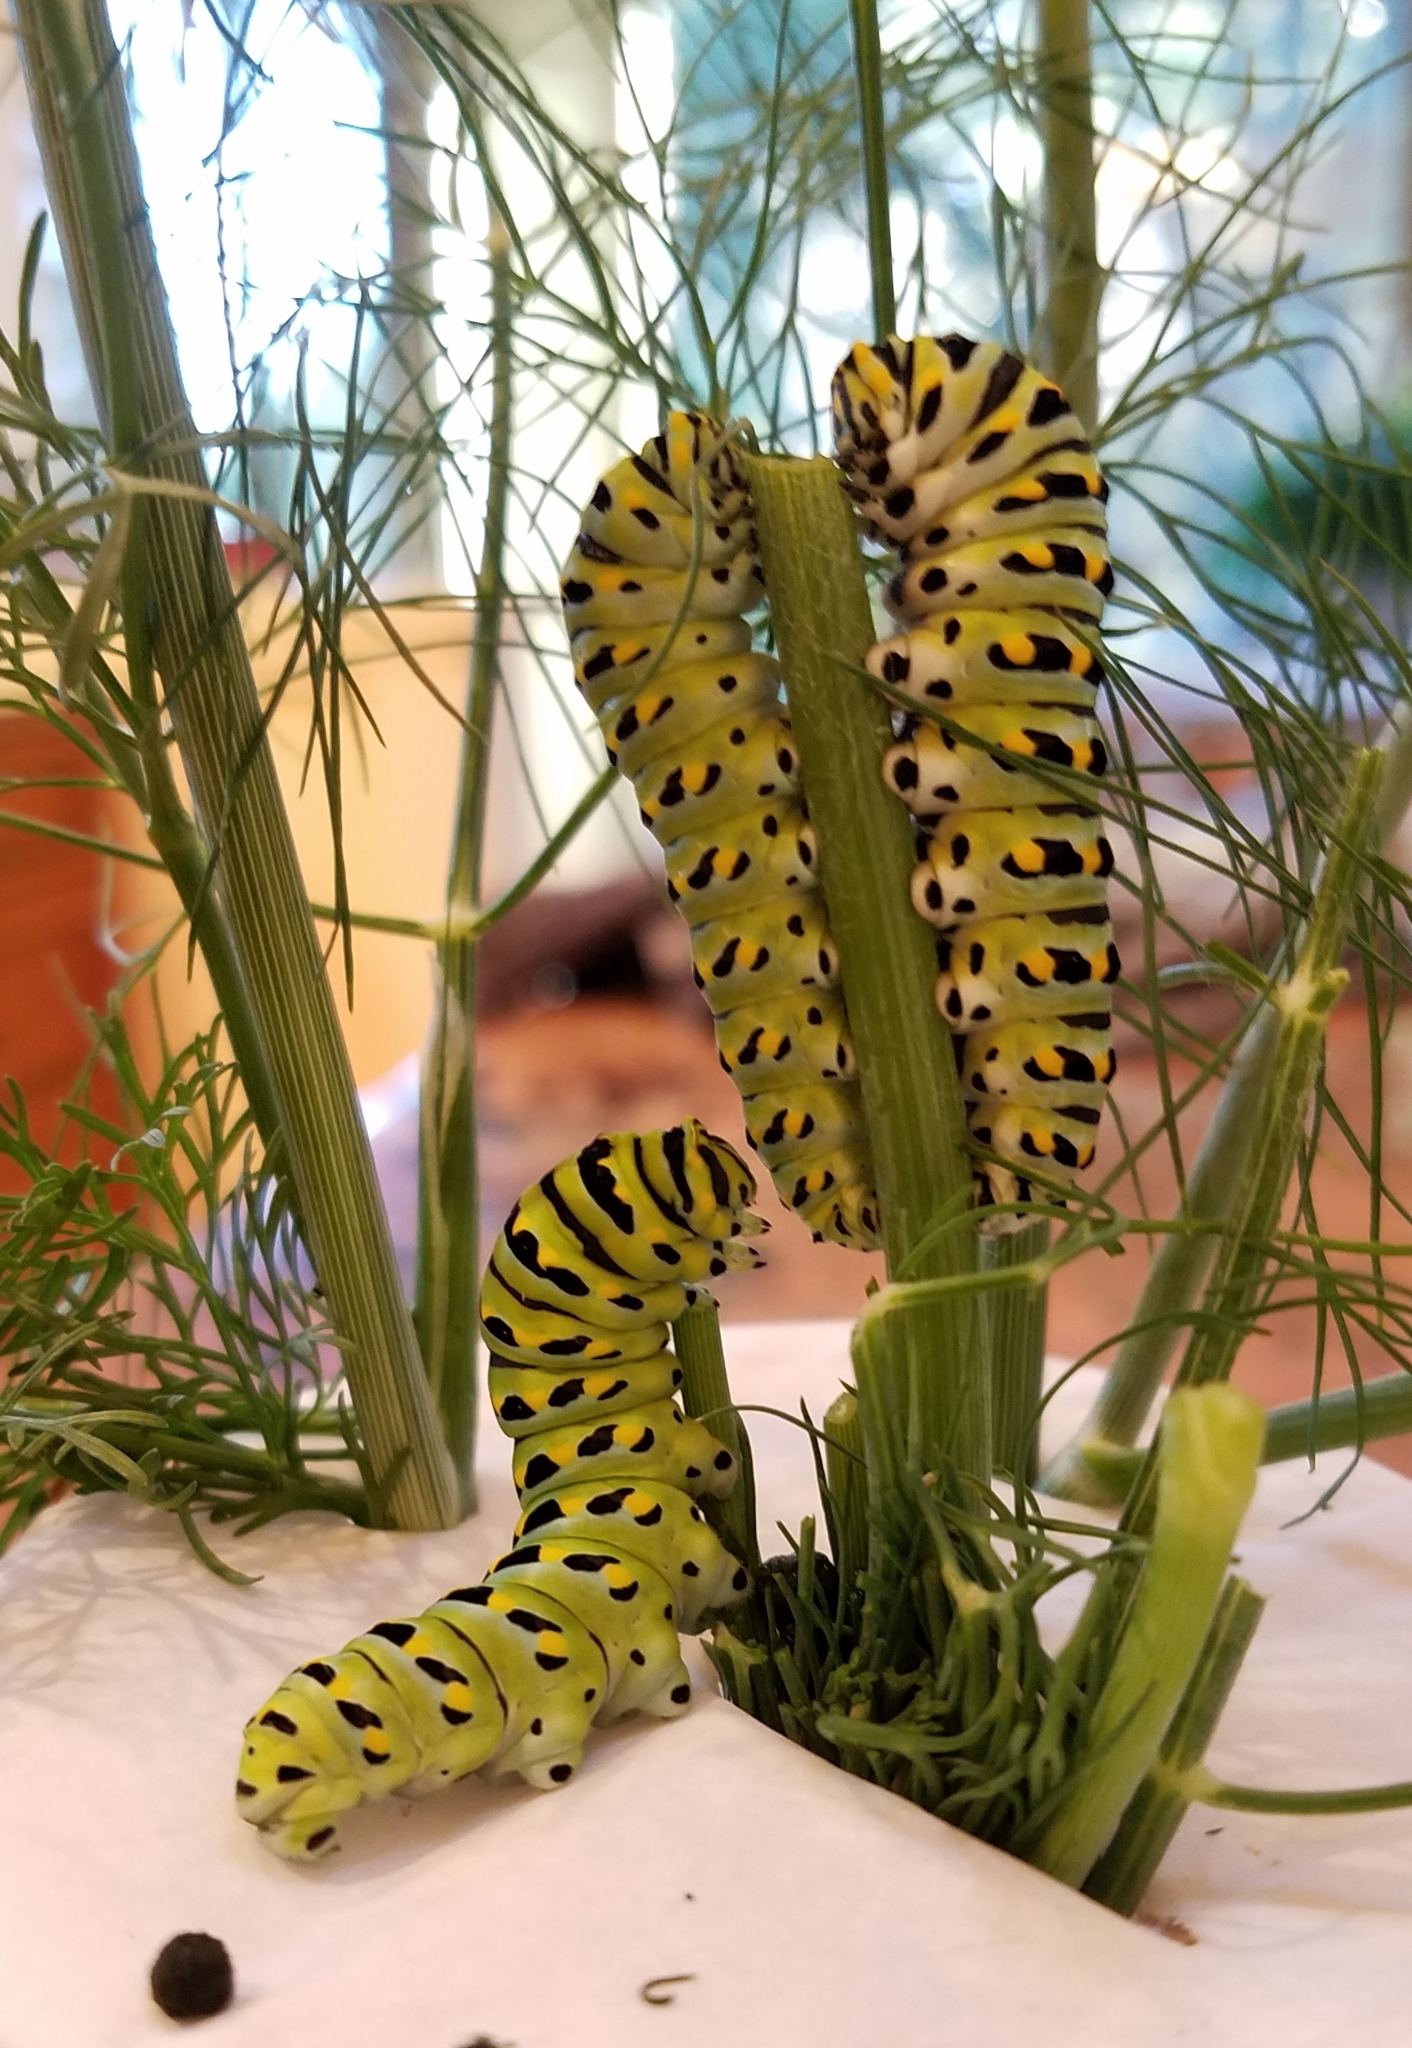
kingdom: Animalia
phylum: Arthropoda
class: Insecta
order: Lepidoptera
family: Papilionidae
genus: Papilio
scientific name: Papilio zelicaon
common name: Anise swallowtail
